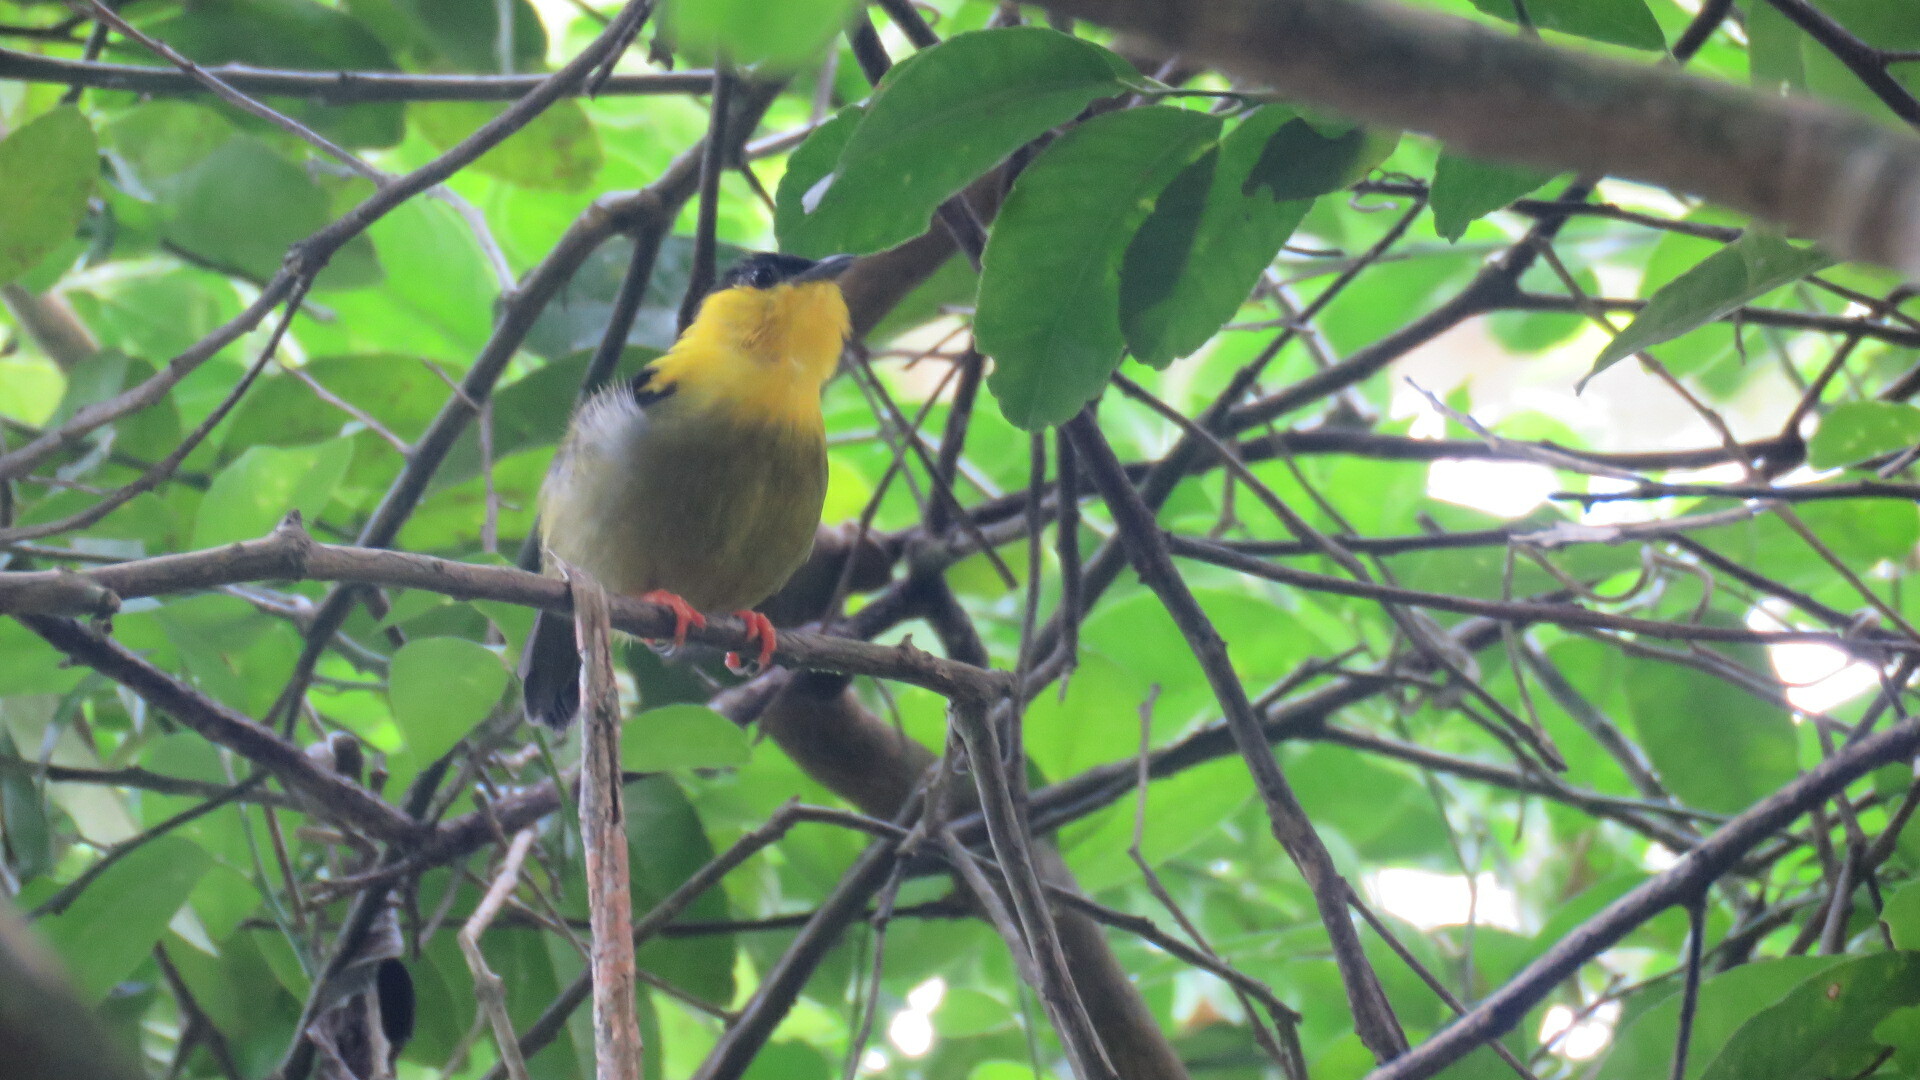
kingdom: Animalia
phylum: Chordata
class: Aves
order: Passeriformes
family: Pipridae
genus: Manacus
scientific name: Manacus vitellinus
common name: Golden-collared manakin
